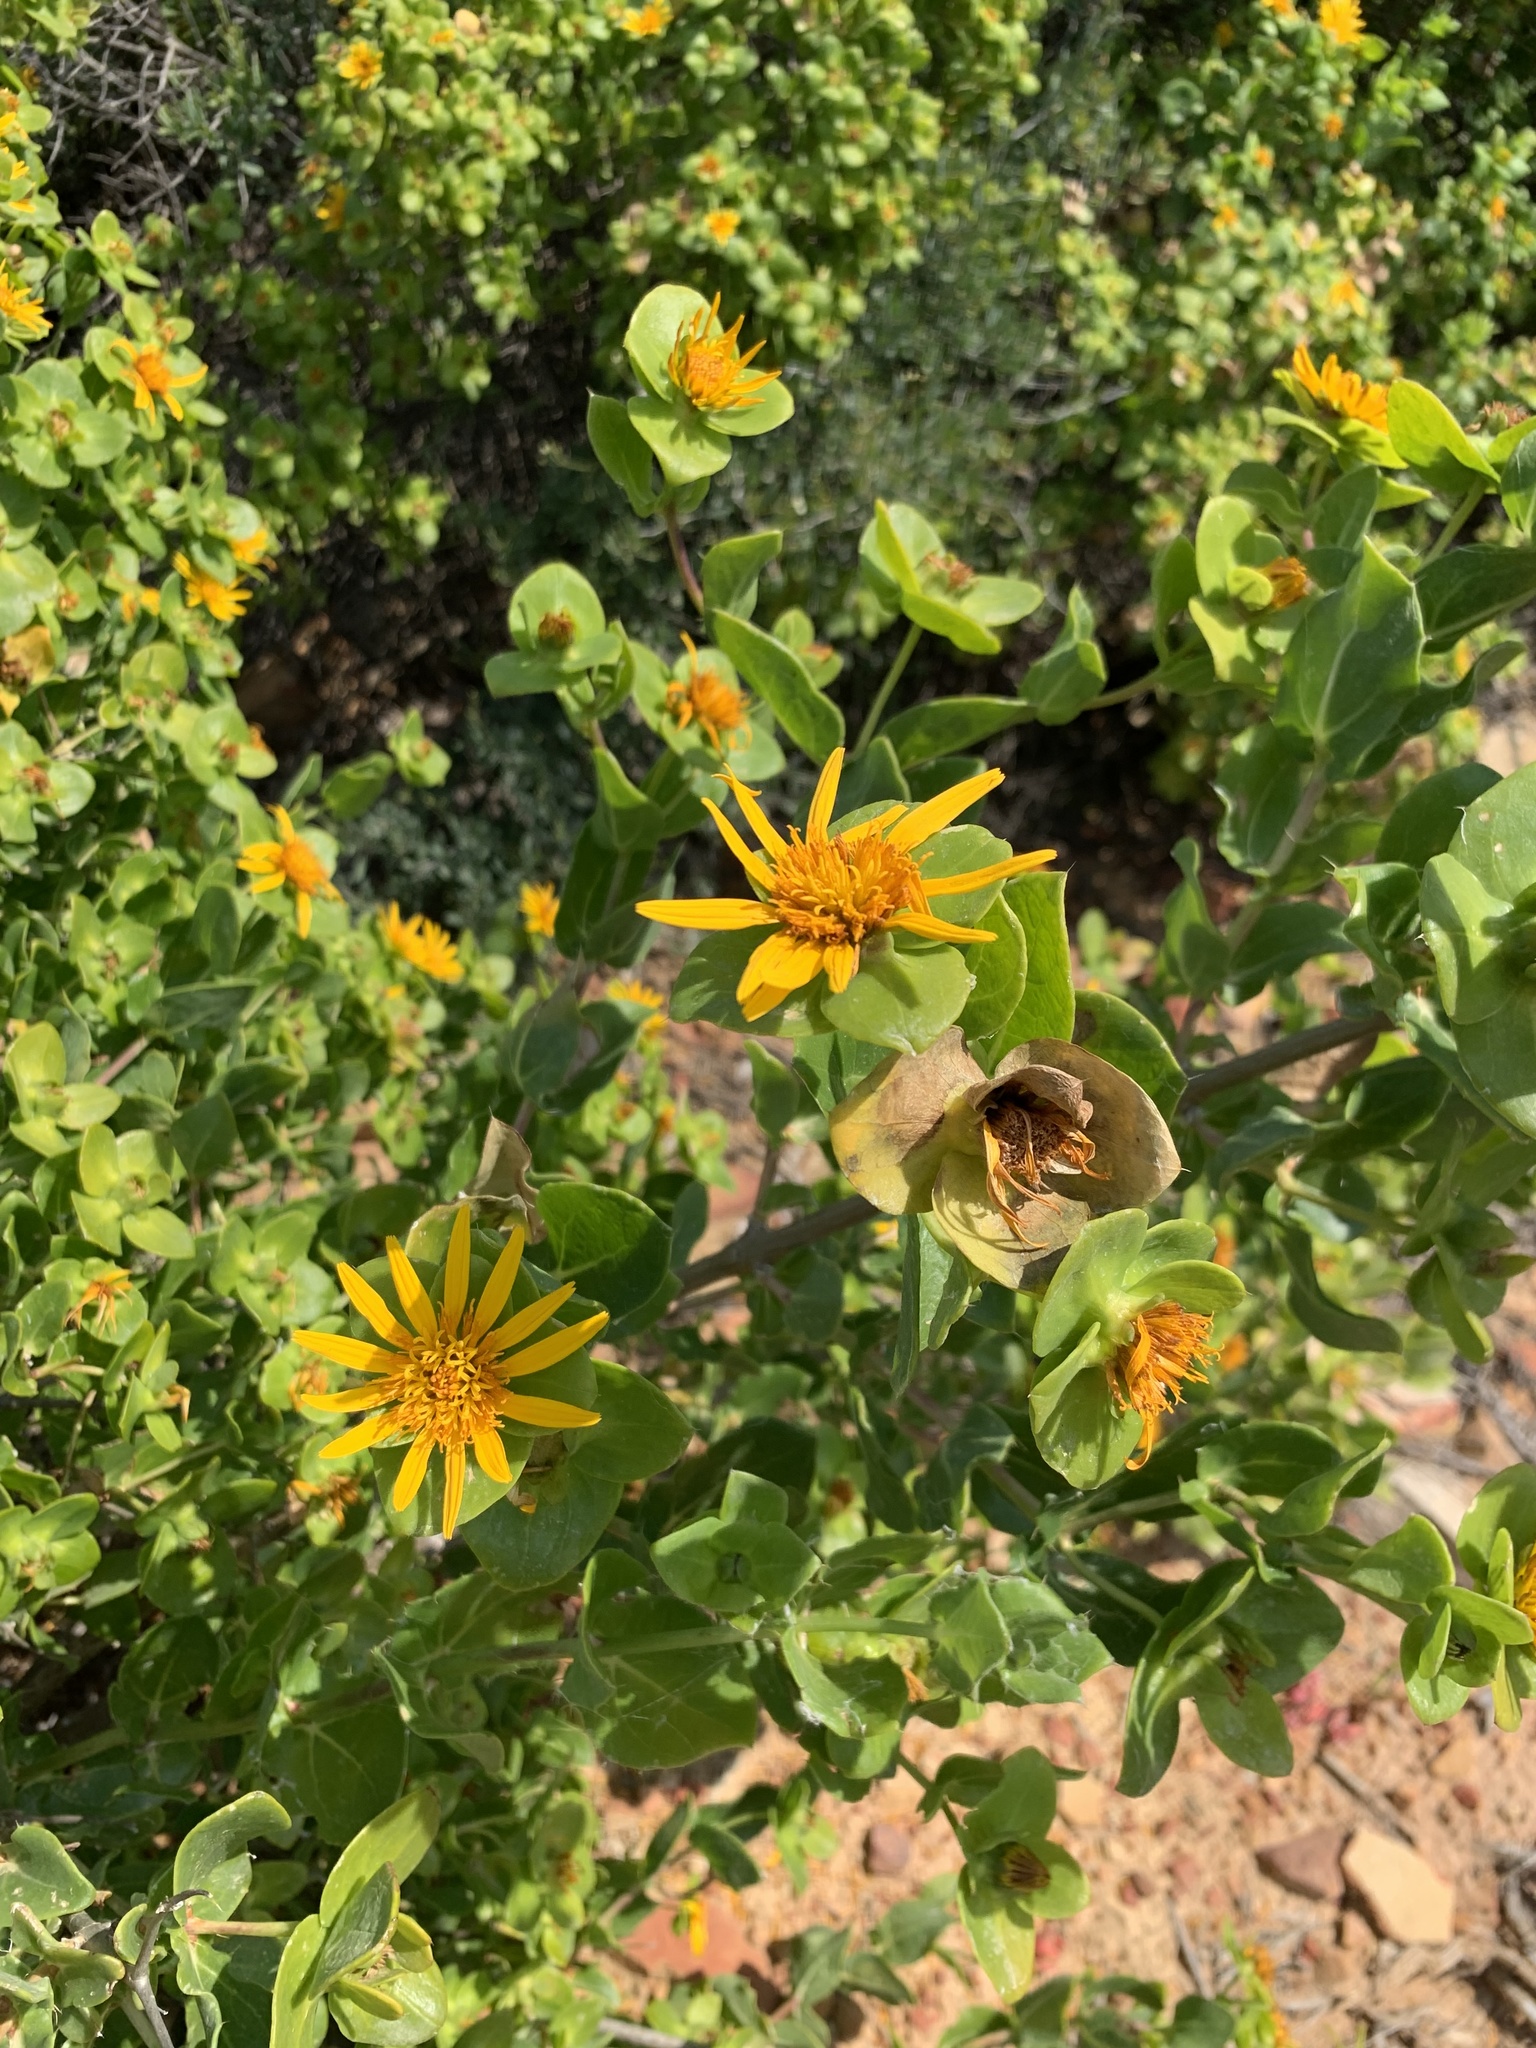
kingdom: Plantae
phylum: Tracheophyta
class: Magnoliopsida
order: Asterales
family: Asteraceae
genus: Didelta
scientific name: Didelta spinosa
